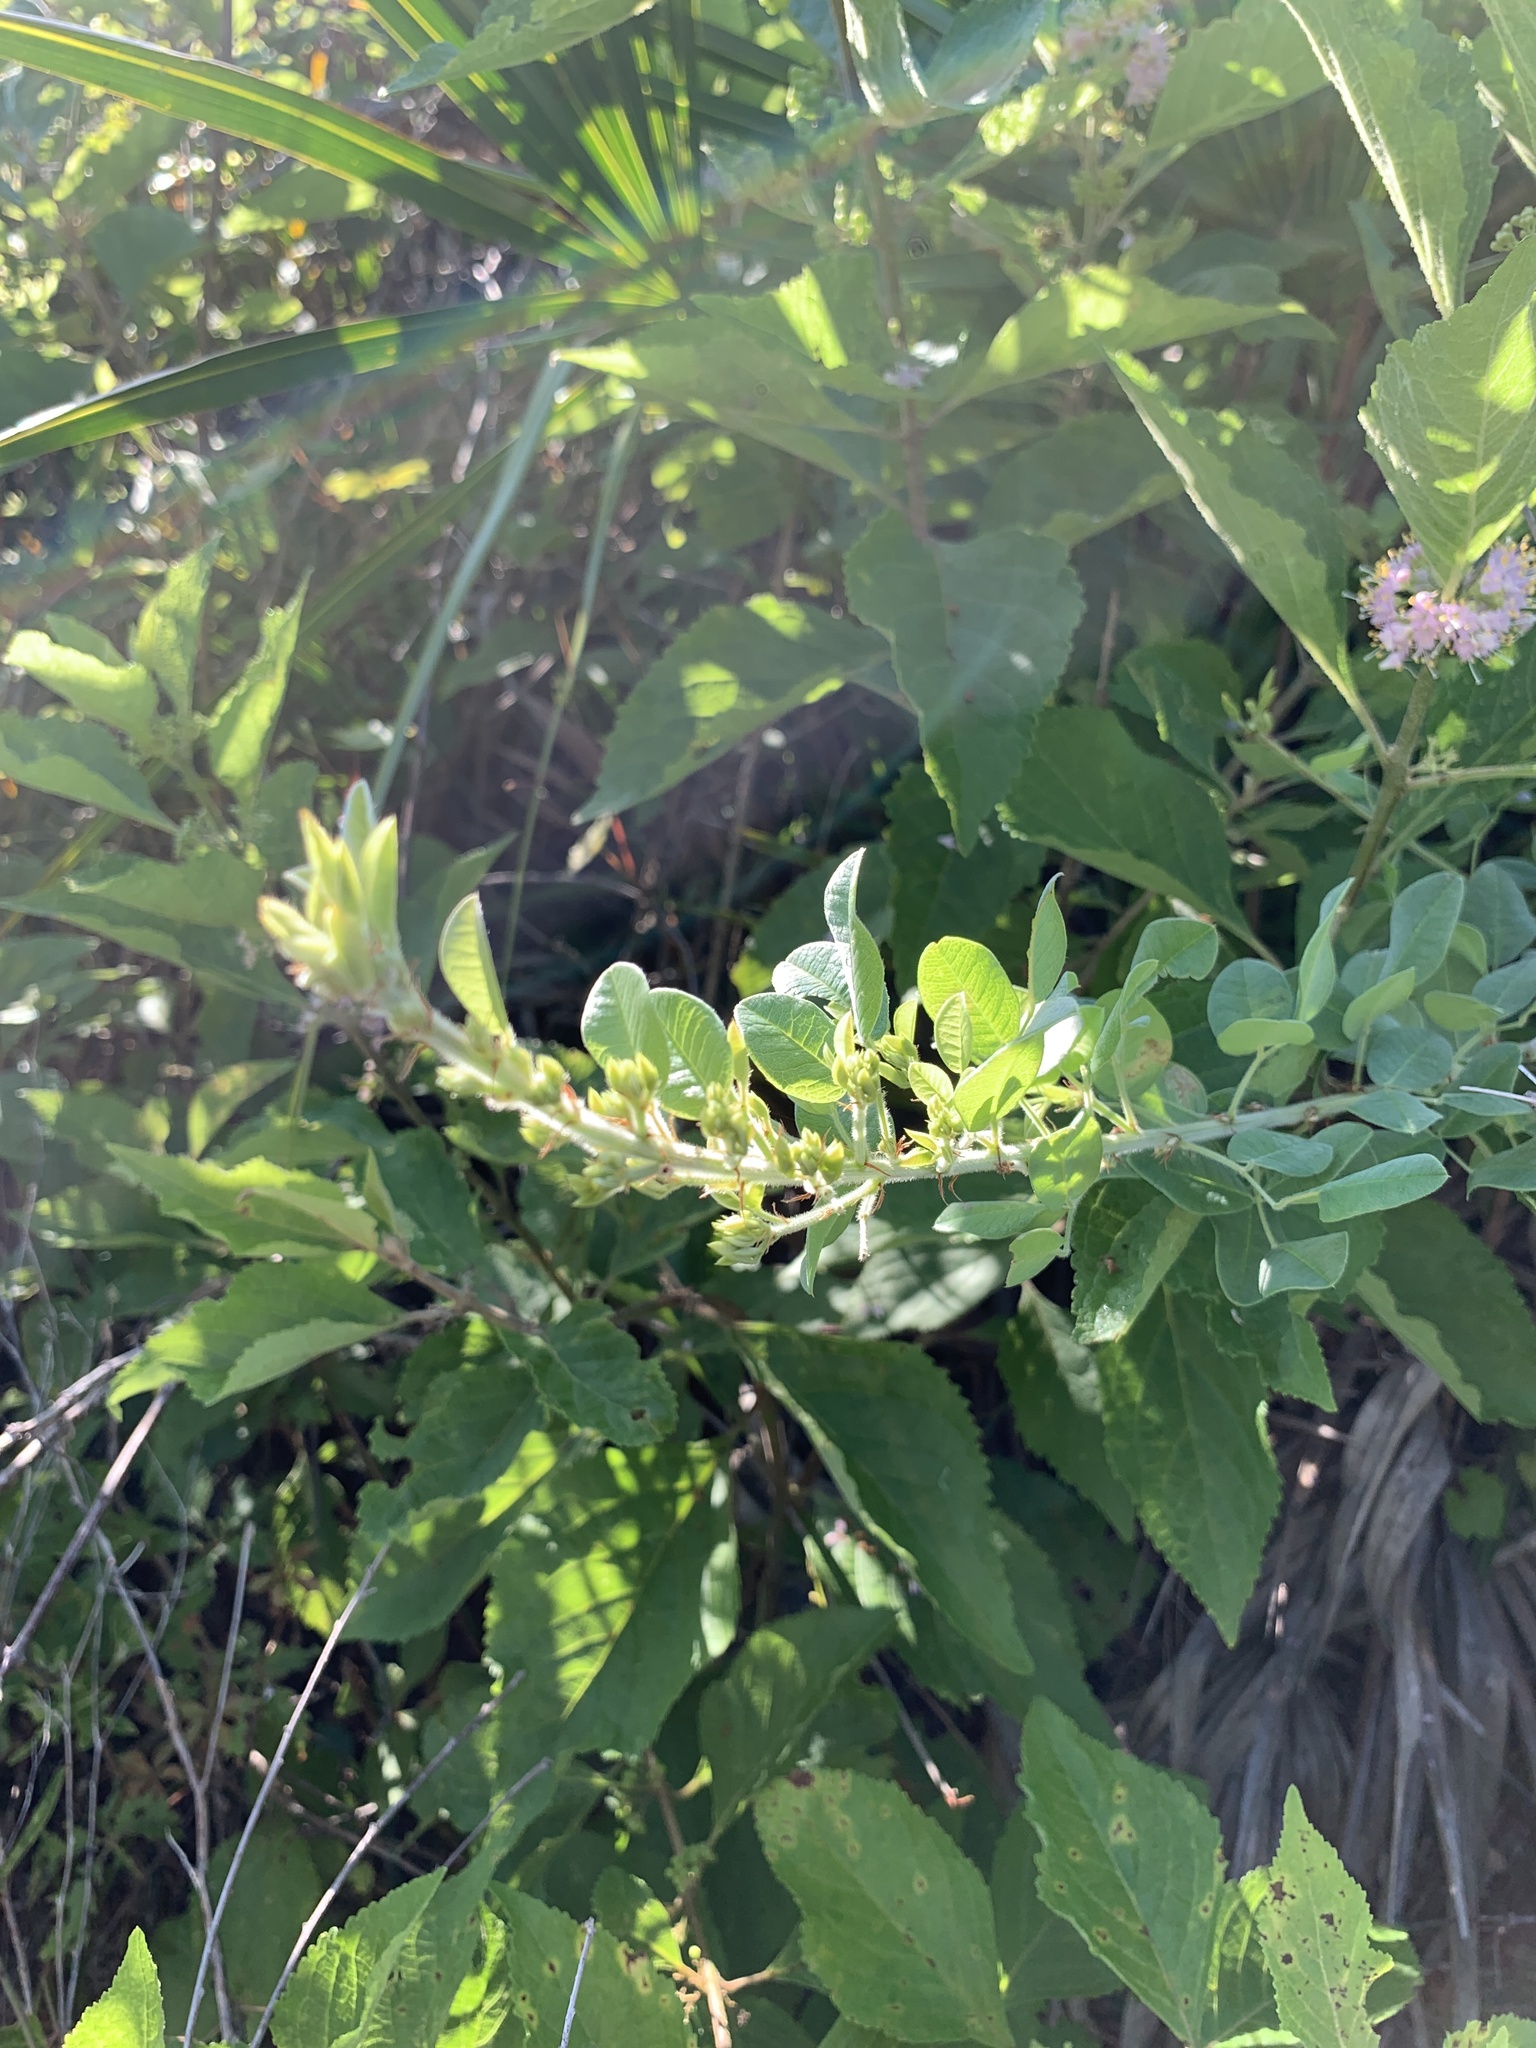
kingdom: Plantae
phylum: Tracheophyta
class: Magnoliopsida
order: Fabales
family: Fabaceae
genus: Crotalaria
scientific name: Crotalaria pallida
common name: Smooth rattlebox
